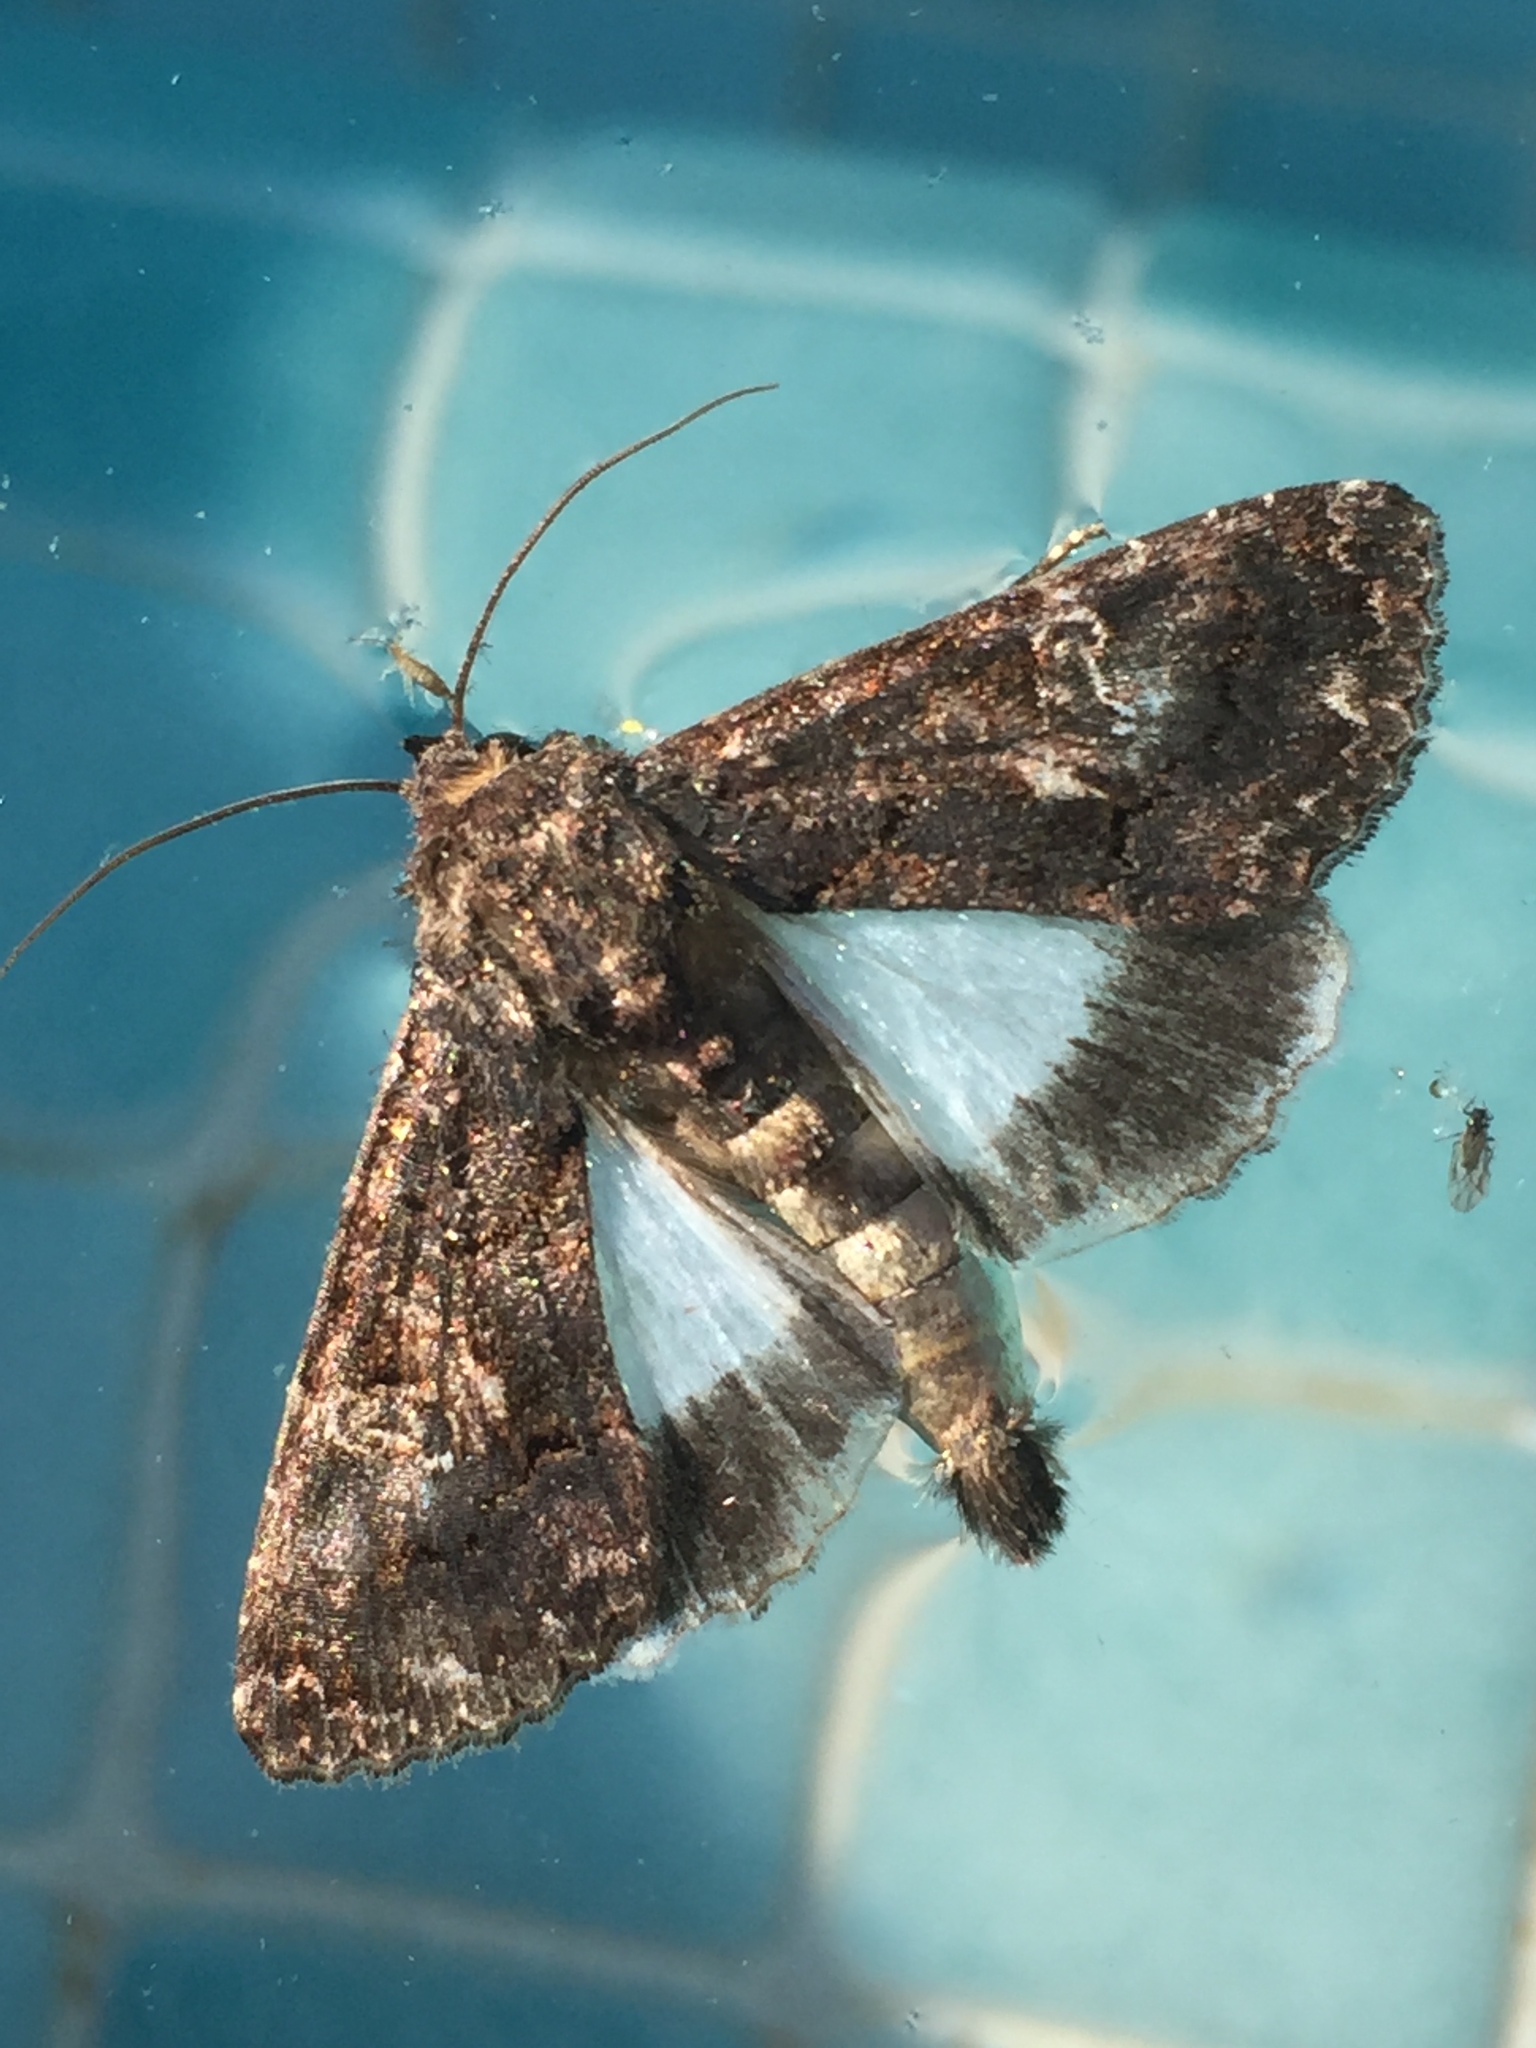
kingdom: Animalia
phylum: Arthropoda
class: Insecta
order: Lepidoptera
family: Noctuidae
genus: Aedia
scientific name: Aedia leucomelas
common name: Sorcerer
